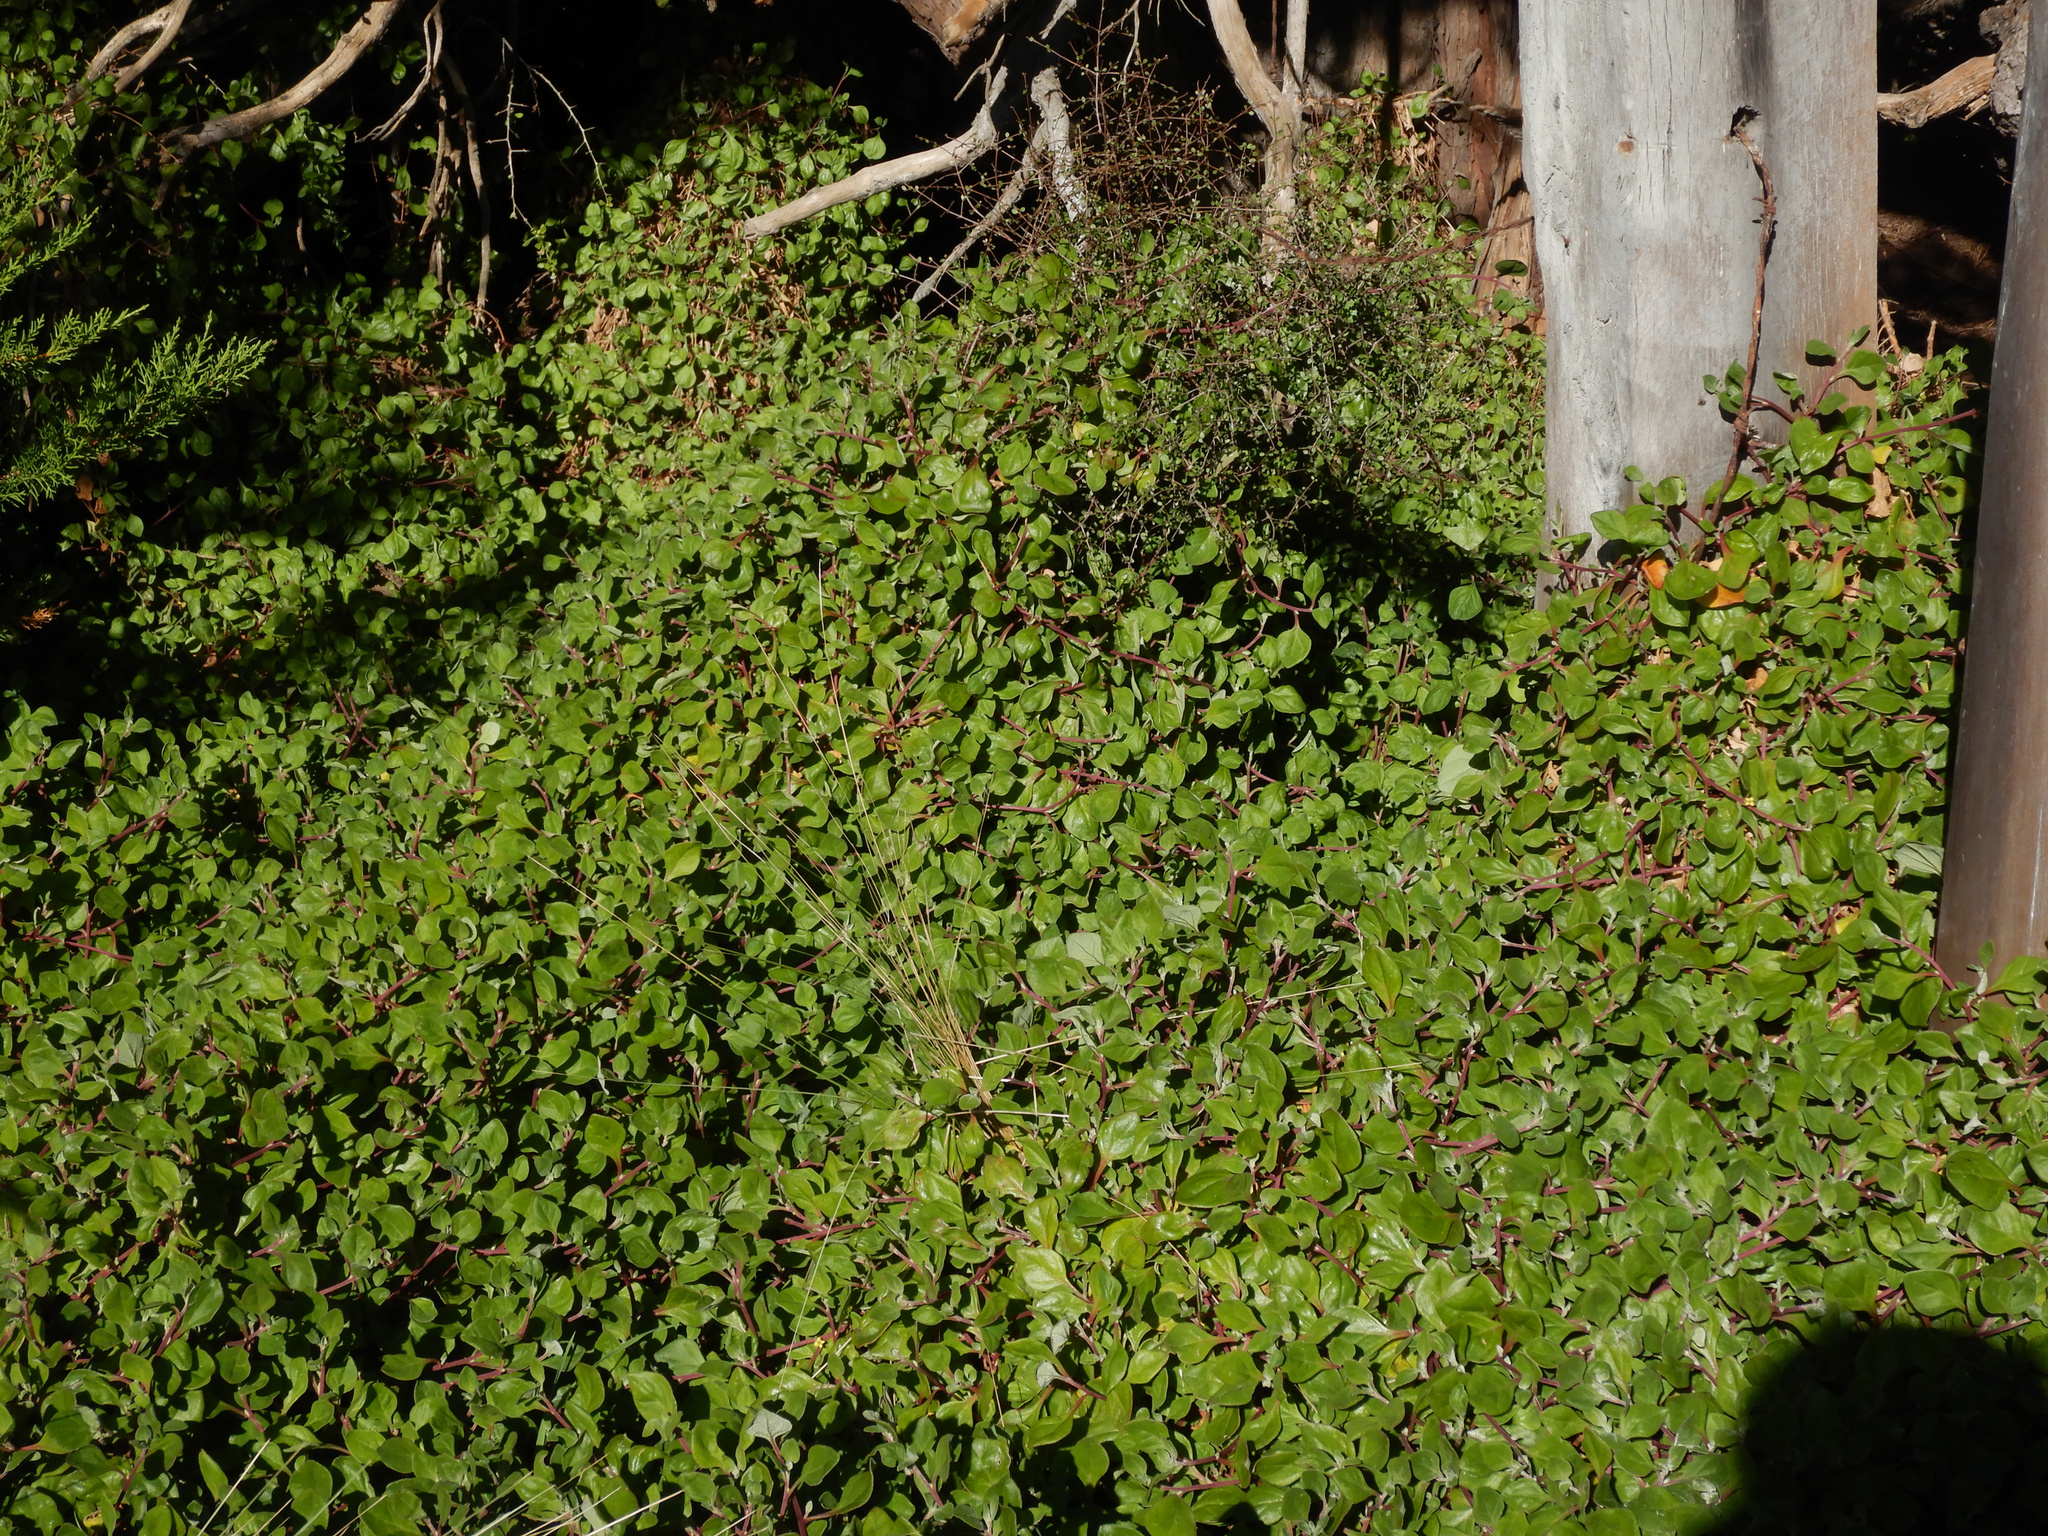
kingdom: Plantae
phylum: Tracheophyta
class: Magnoliopsida
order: Caryophyllales
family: Aizoaceae
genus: Tetragonia
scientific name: Tetragonia implexicoma
